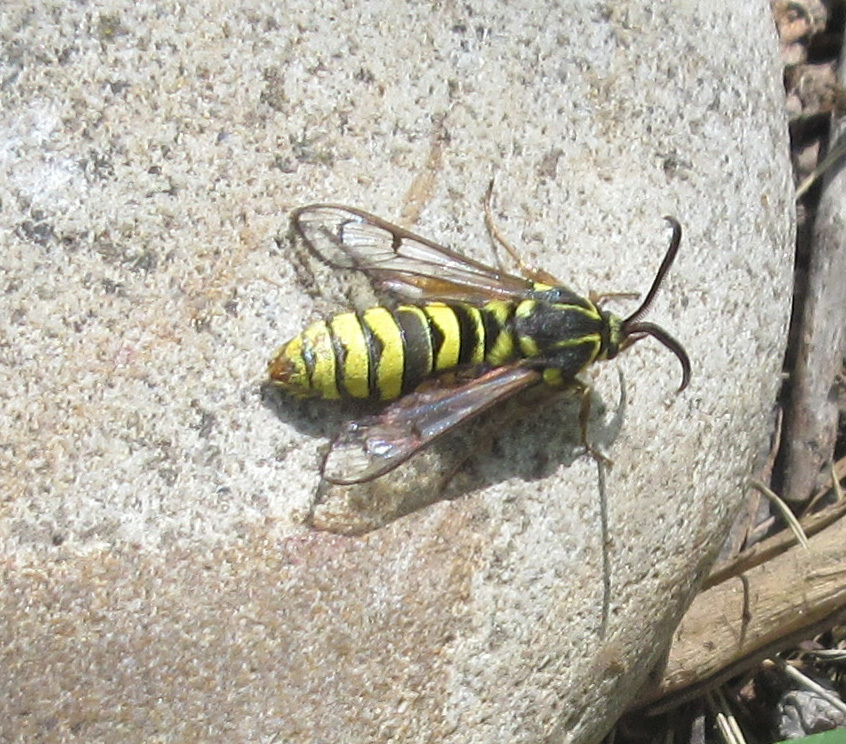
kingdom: Animalia
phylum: Arthropoda
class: Insecta
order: Lepidoptera
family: Sesiidae
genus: Sesia
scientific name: Sesia tibiale
